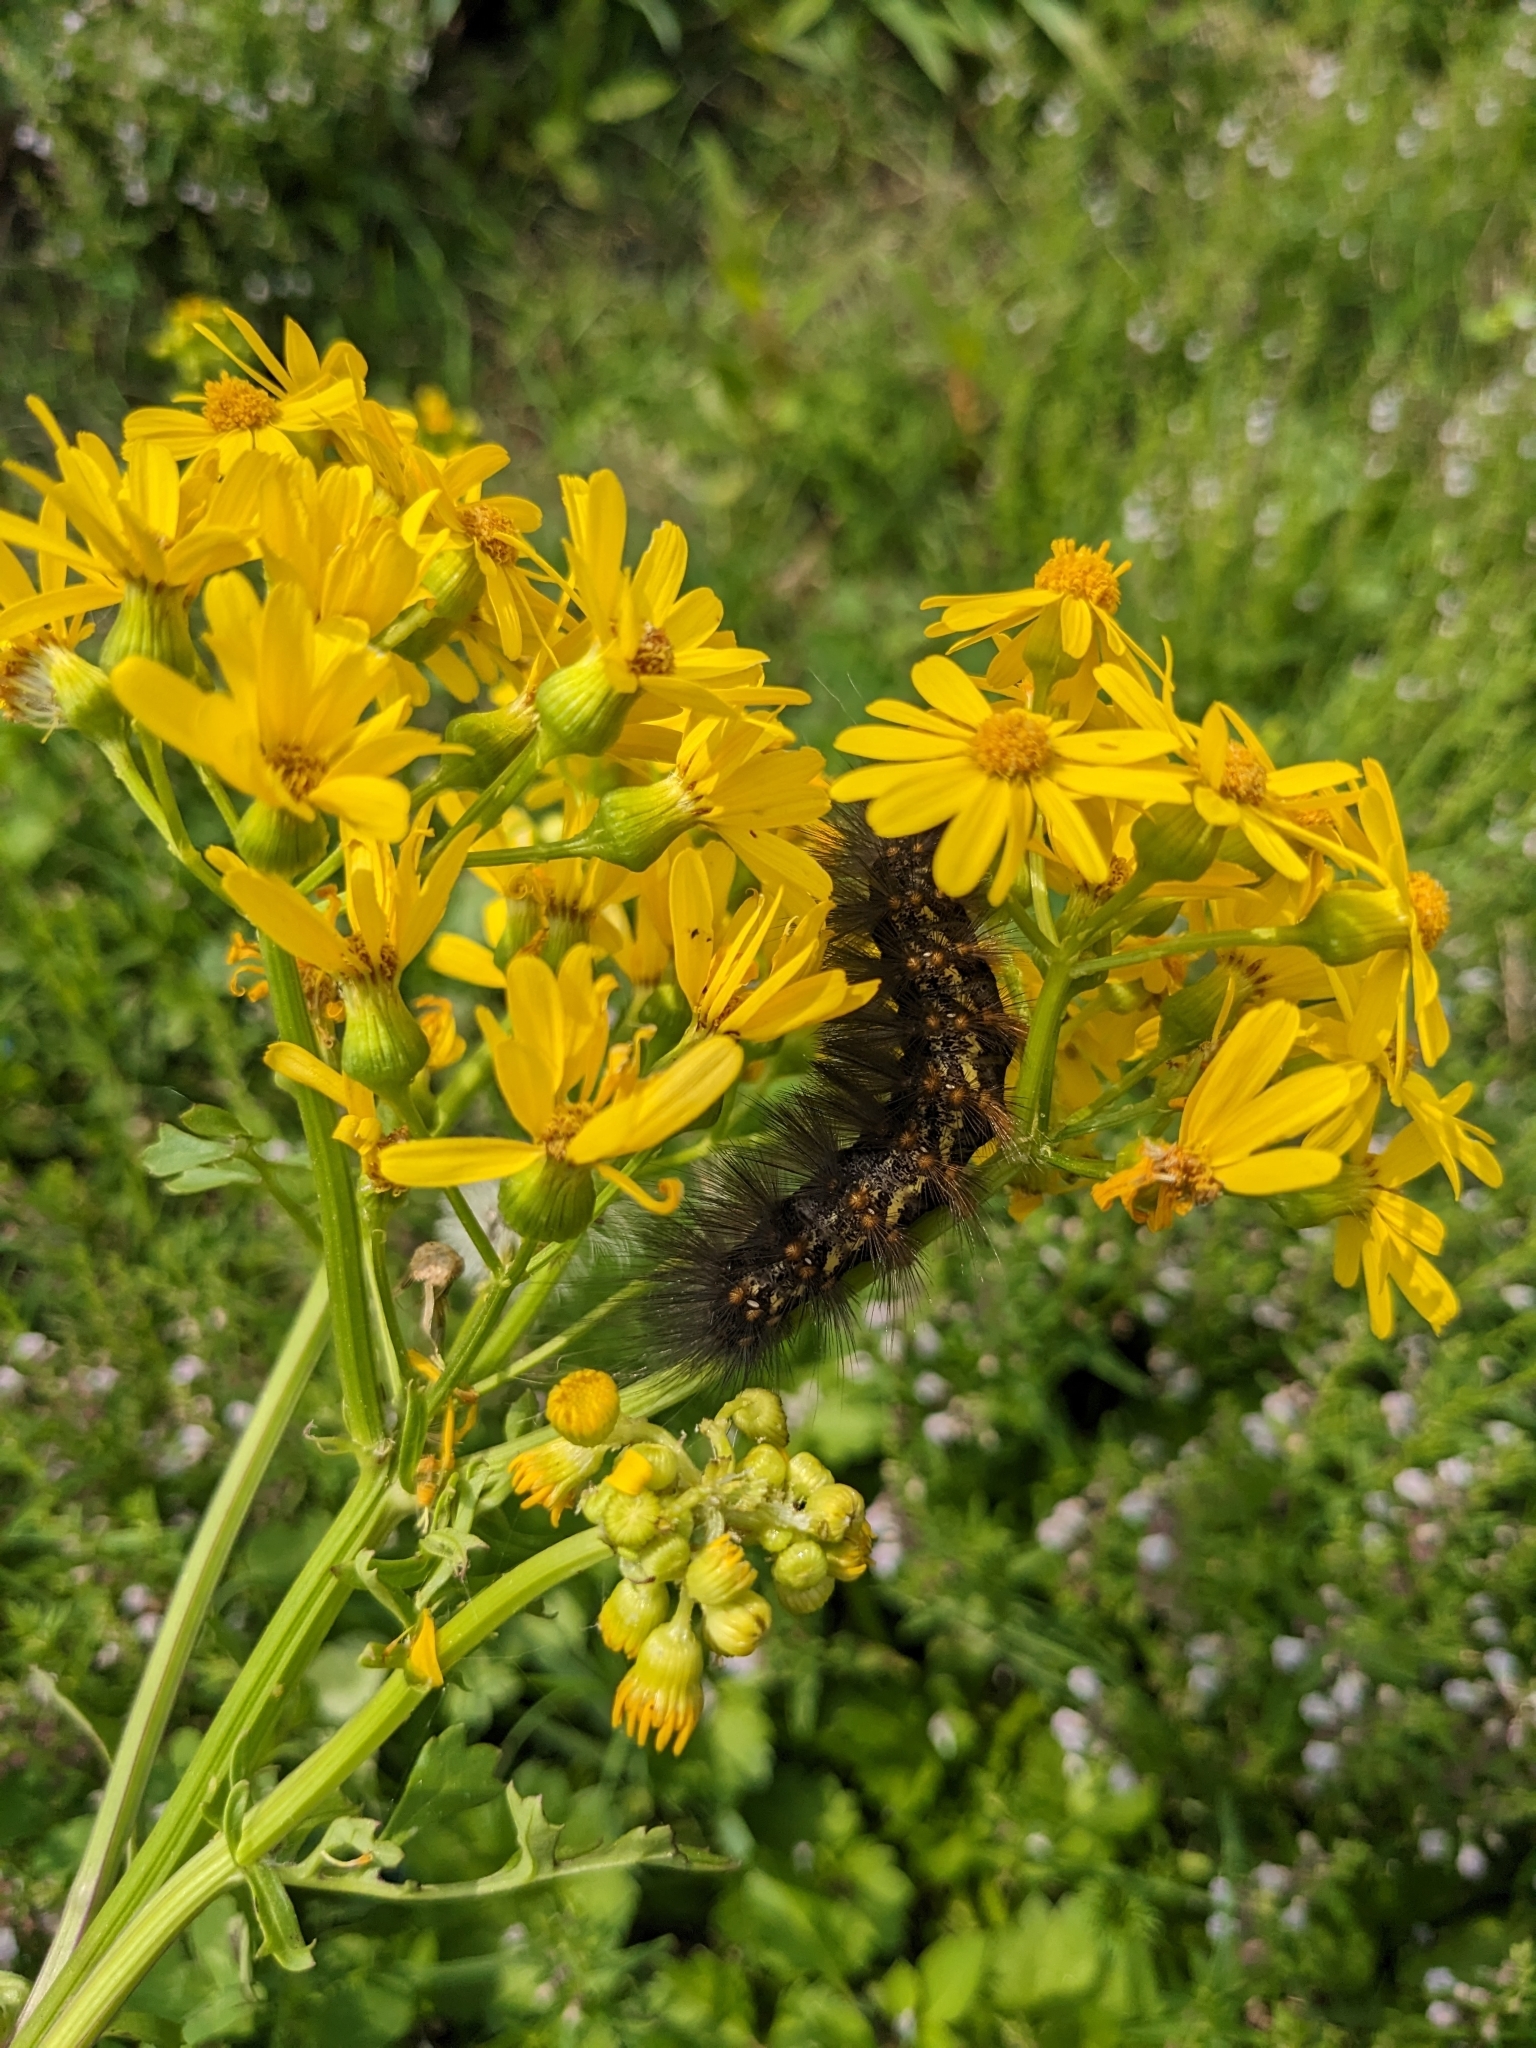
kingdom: Animalia
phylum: Arthropoda
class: Insecta
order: Lepidoptera
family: Erebidae
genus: Estigmene
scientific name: Estigmene acrea
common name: Salt marsh moth
